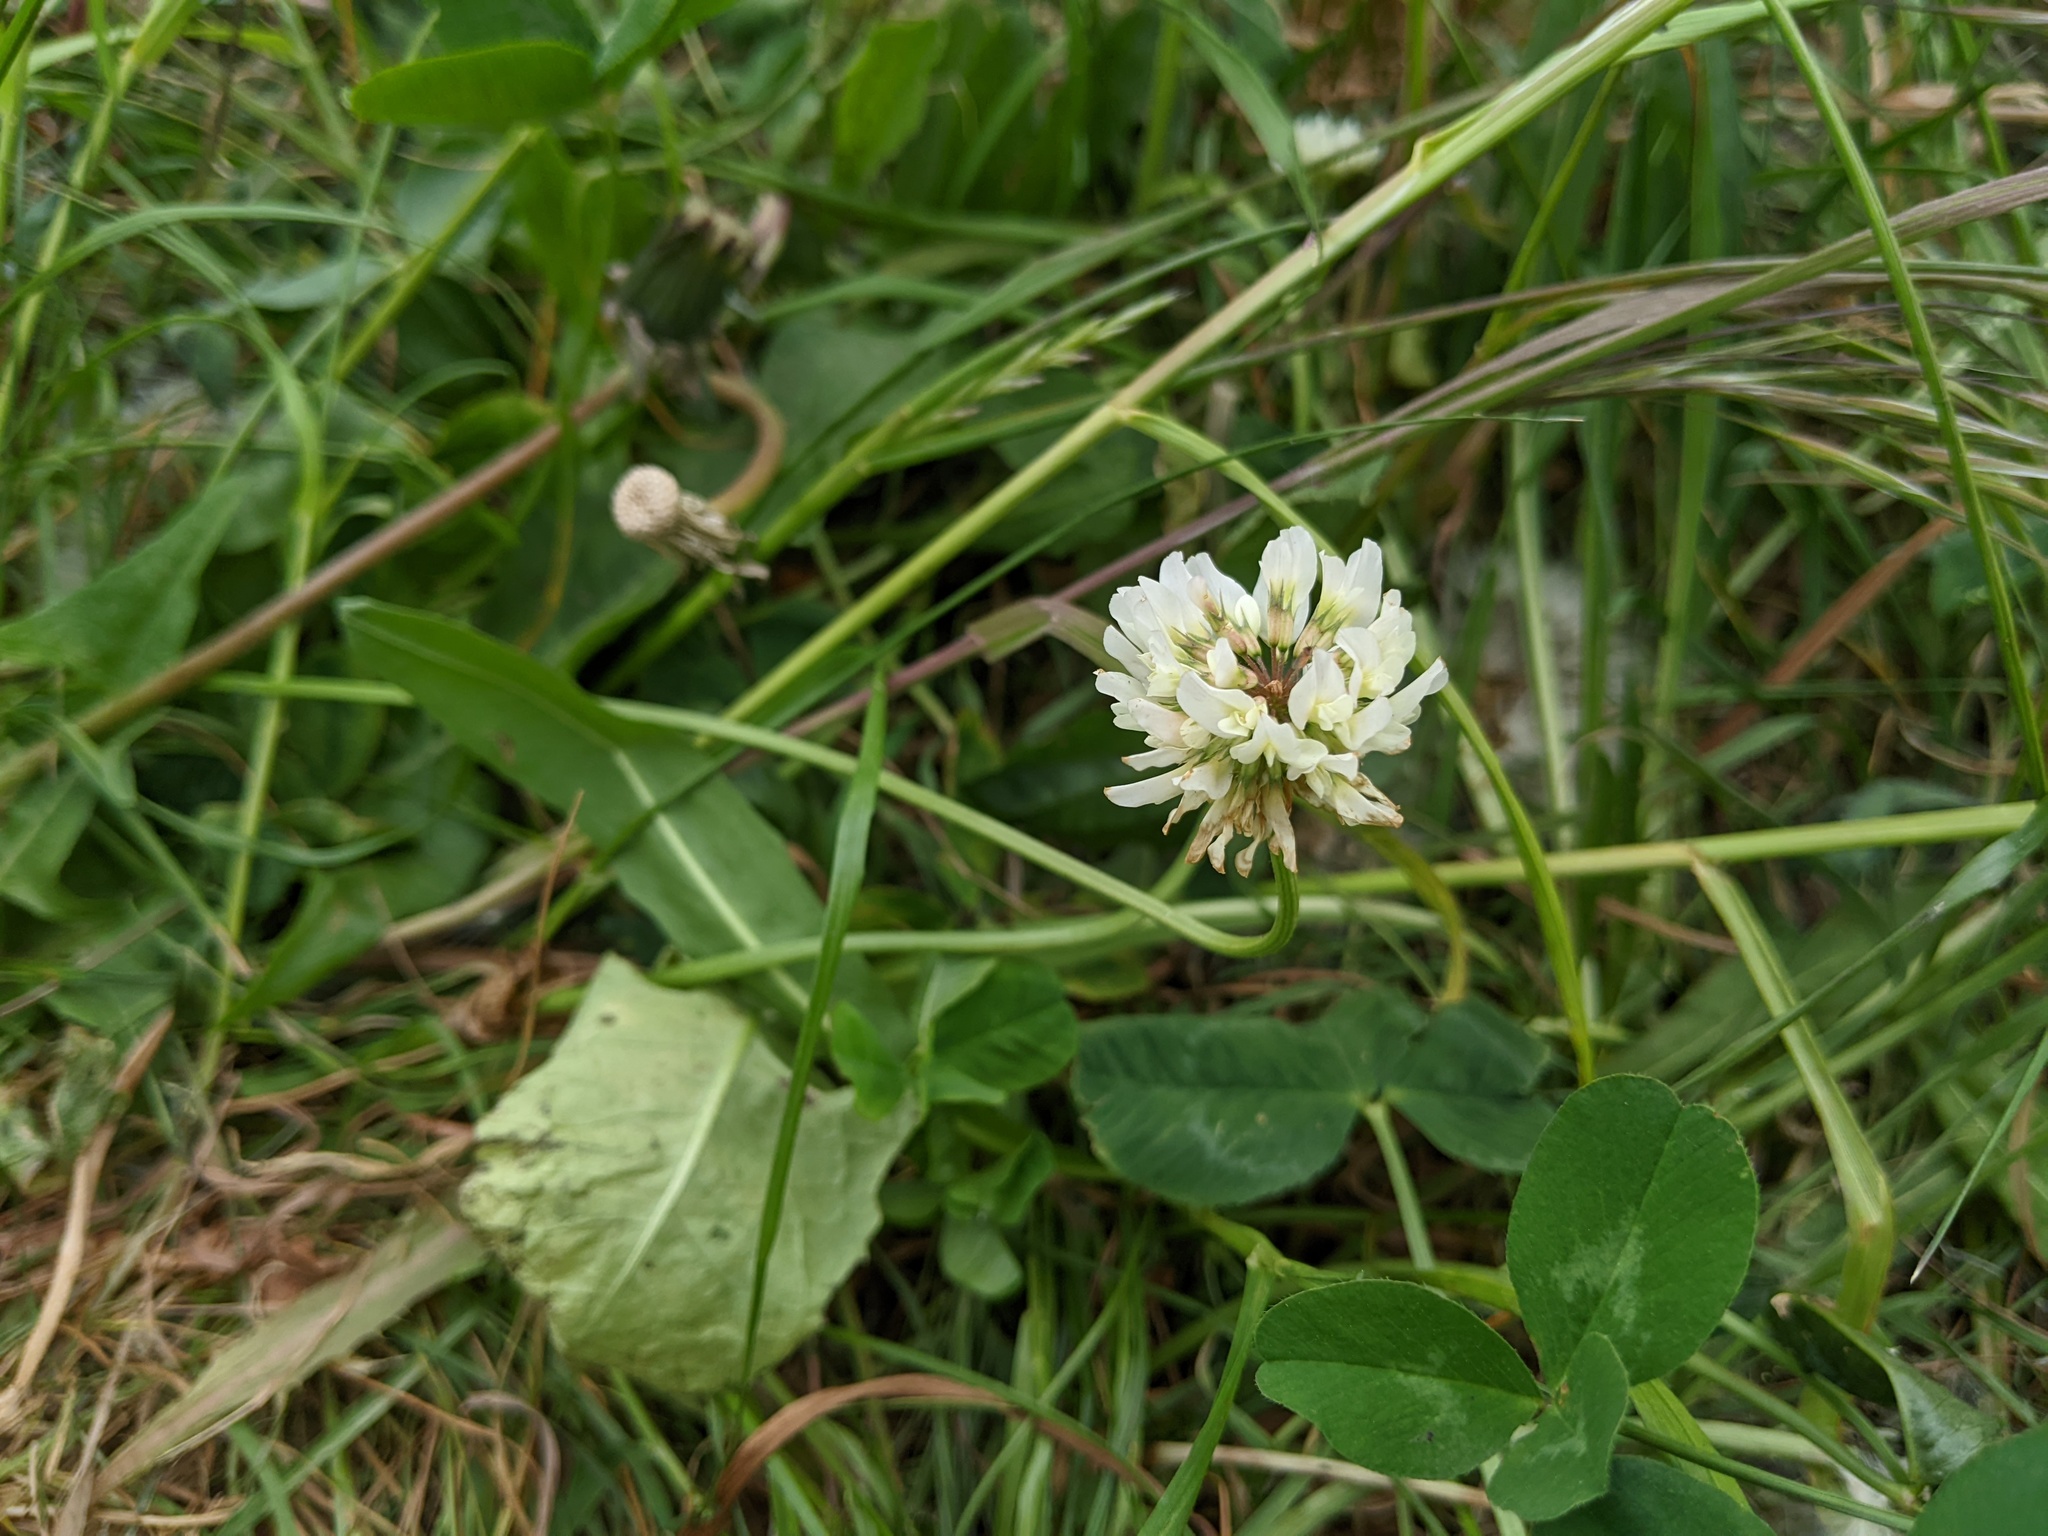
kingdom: Plantae
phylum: Tracheophyta
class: Magnoliopsida
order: Fabales
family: Fabaceae
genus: Trifolium
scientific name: Trifolium repens
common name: White clover
